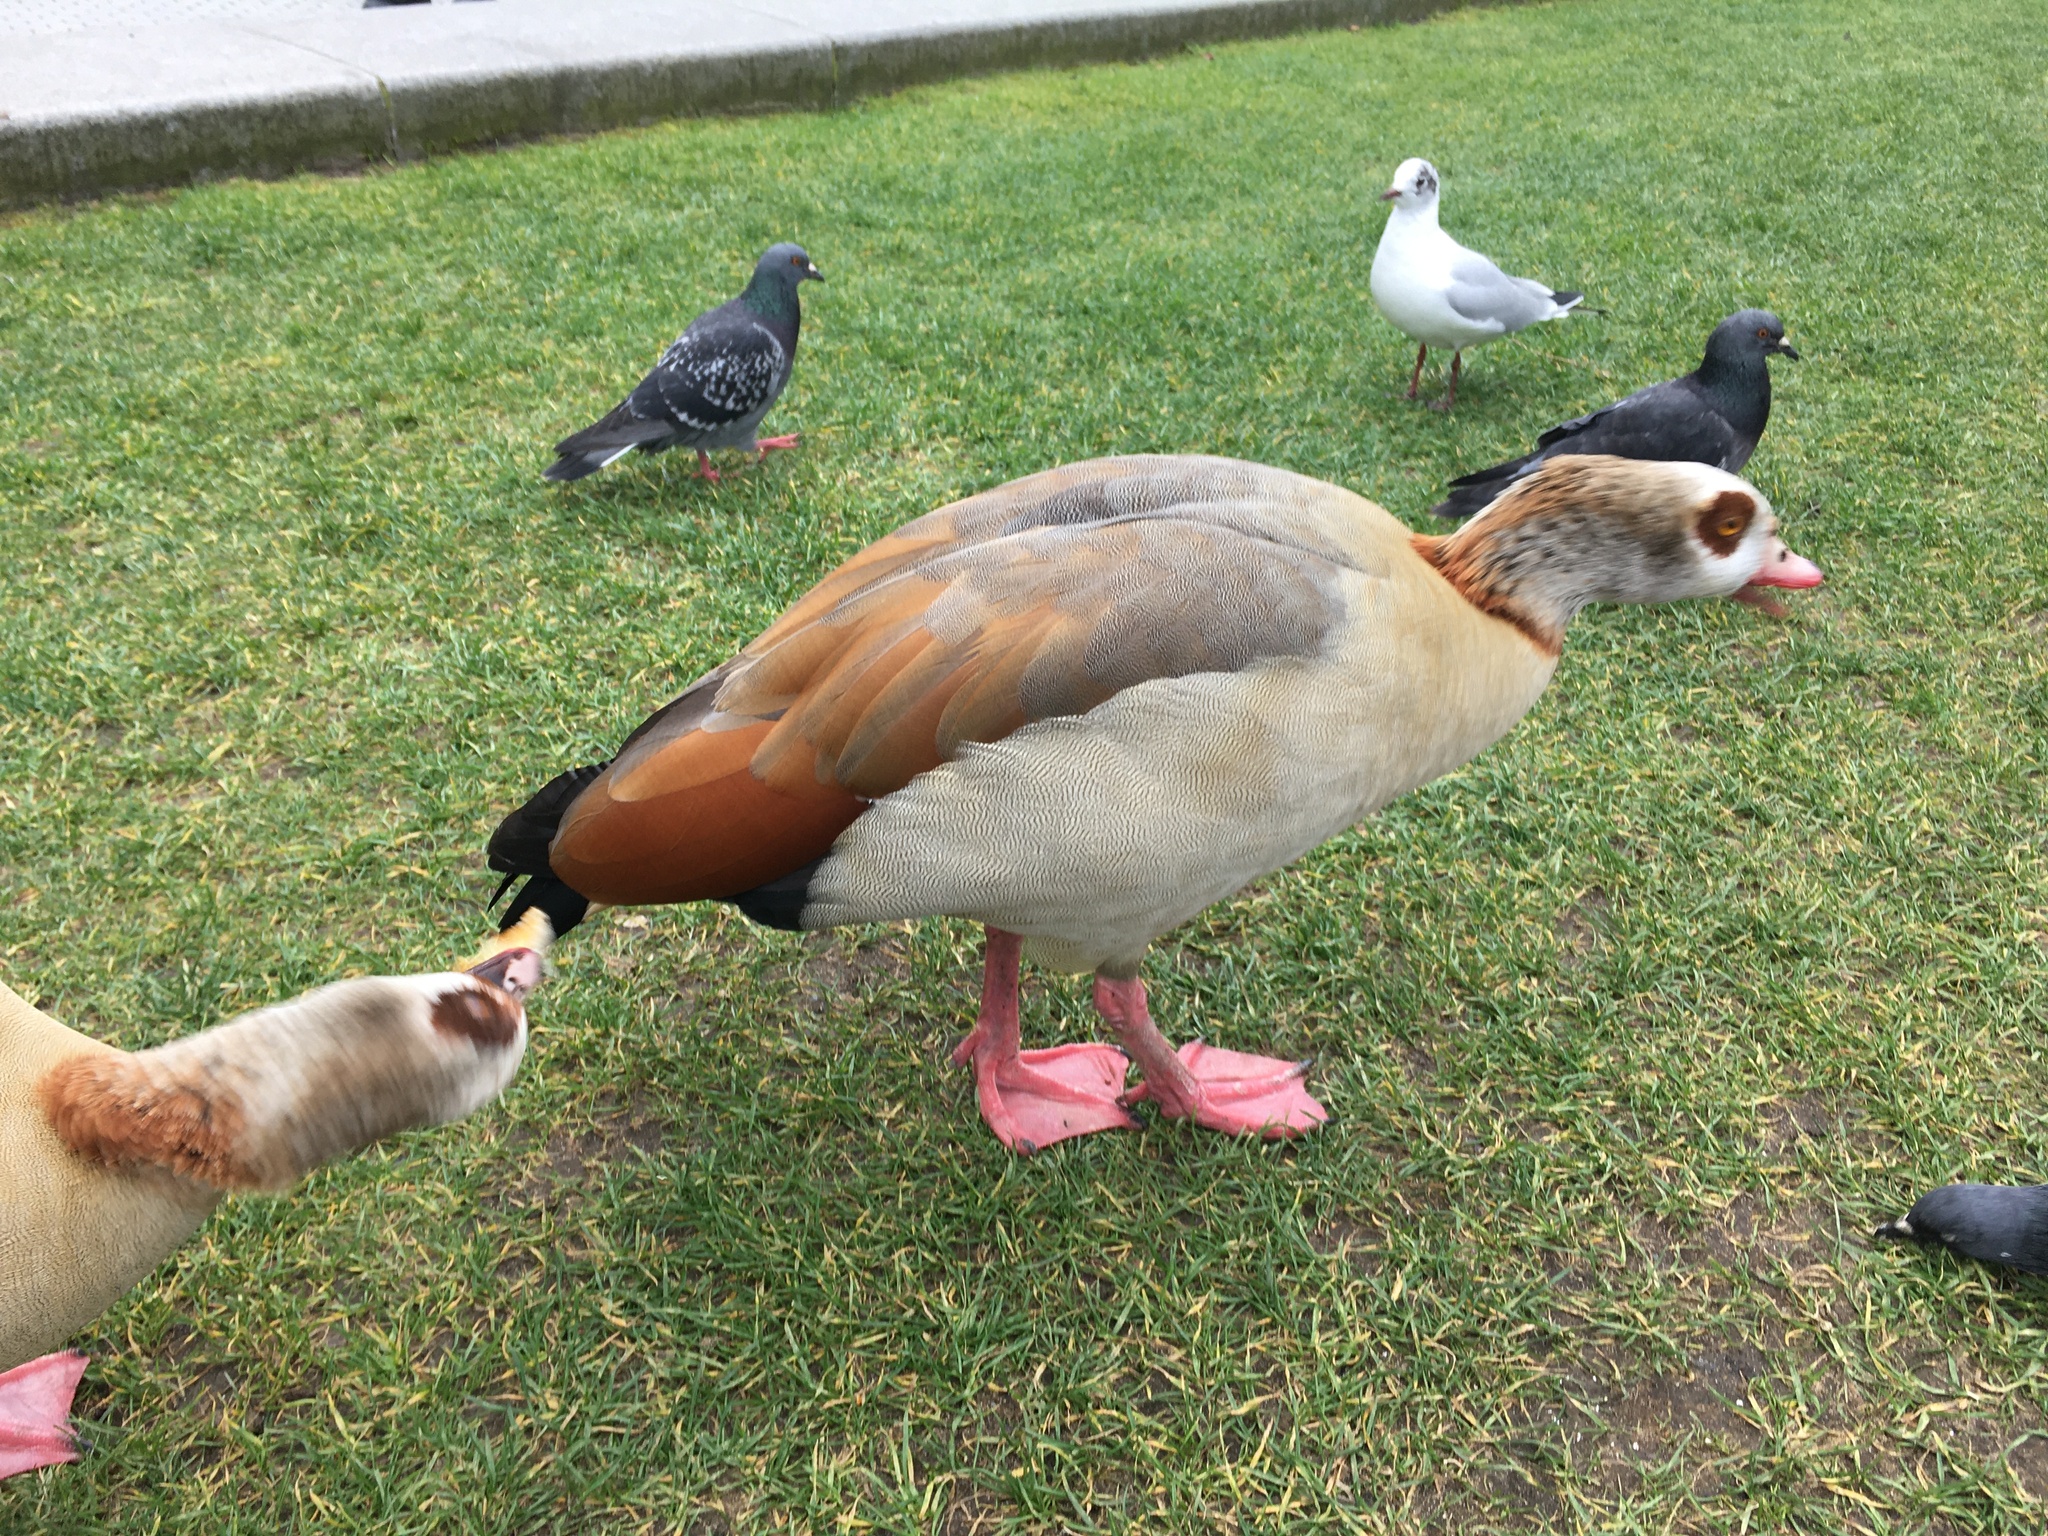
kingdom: Animalia
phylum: Chordata
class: Aves
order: Anseriformes
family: Anatidae
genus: Alopochen
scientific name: Alopochen aegyptiaca
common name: Egyptian goose
